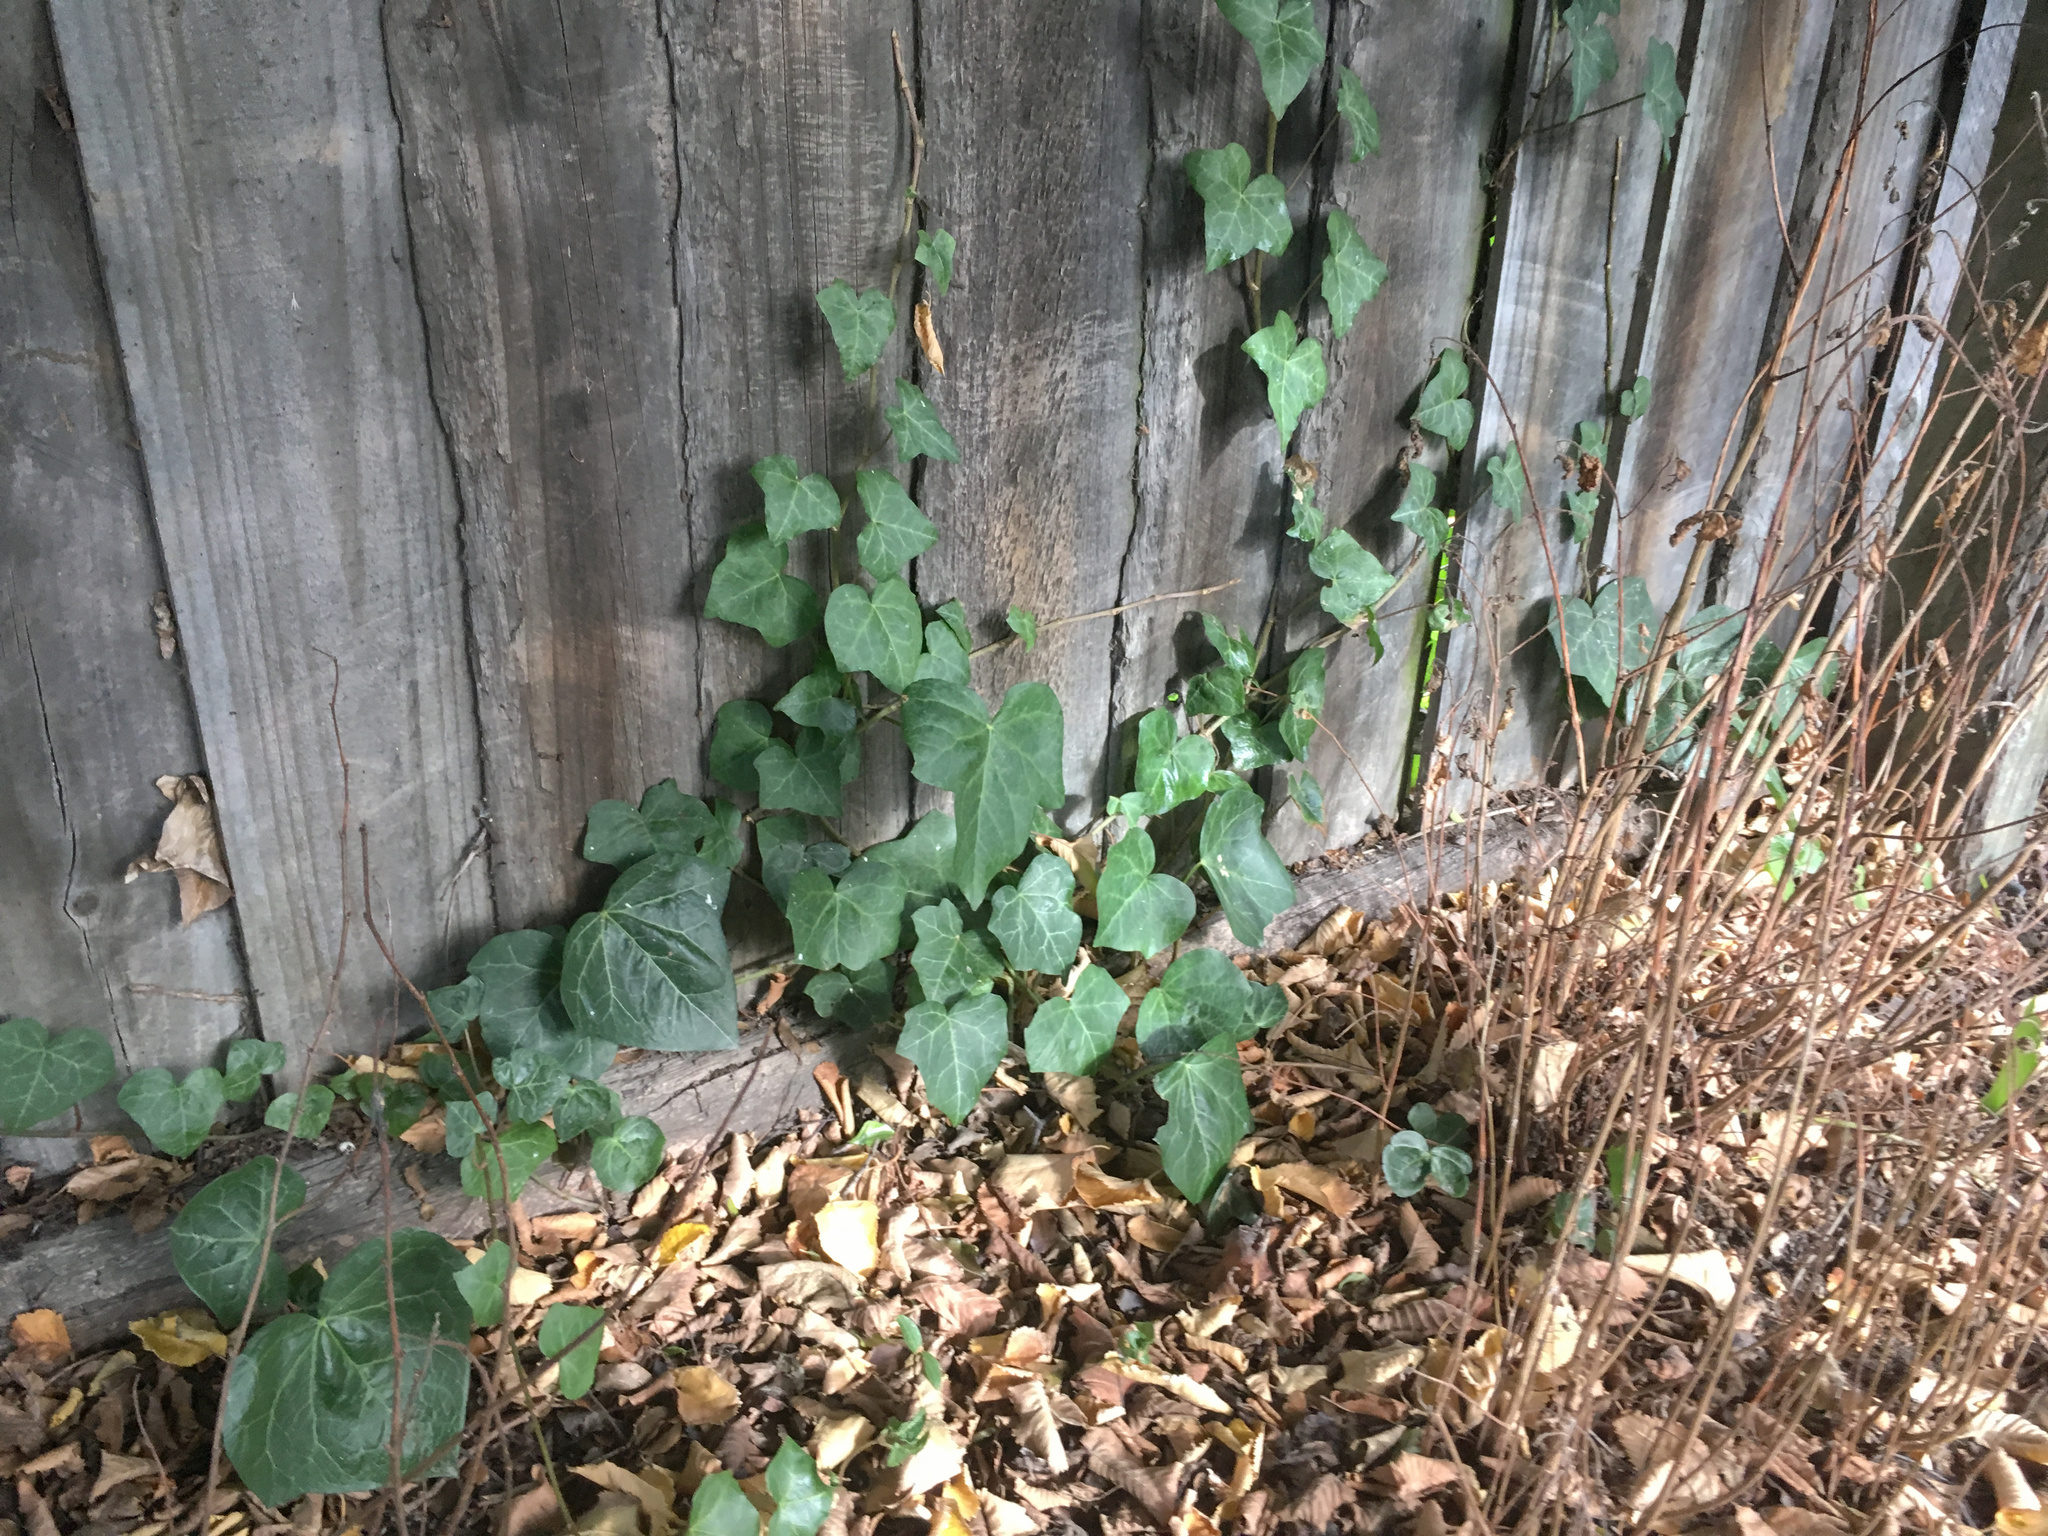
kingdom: Plantae
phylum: Tracheophyta
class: Magnoliopsida
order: Apiales
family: Araliaceae
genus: Hedera
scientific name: Hedera canariensis
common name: Madeira ivy
